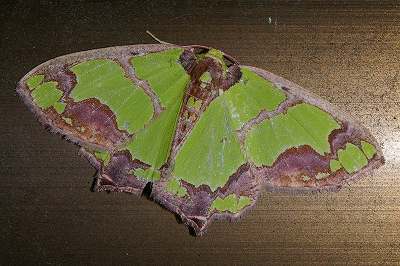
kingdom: Animalia
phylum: Arthropoda
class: Insecta
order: Lepidoptera
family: Geometridae
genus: Agathia
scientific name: Agathia visenda
